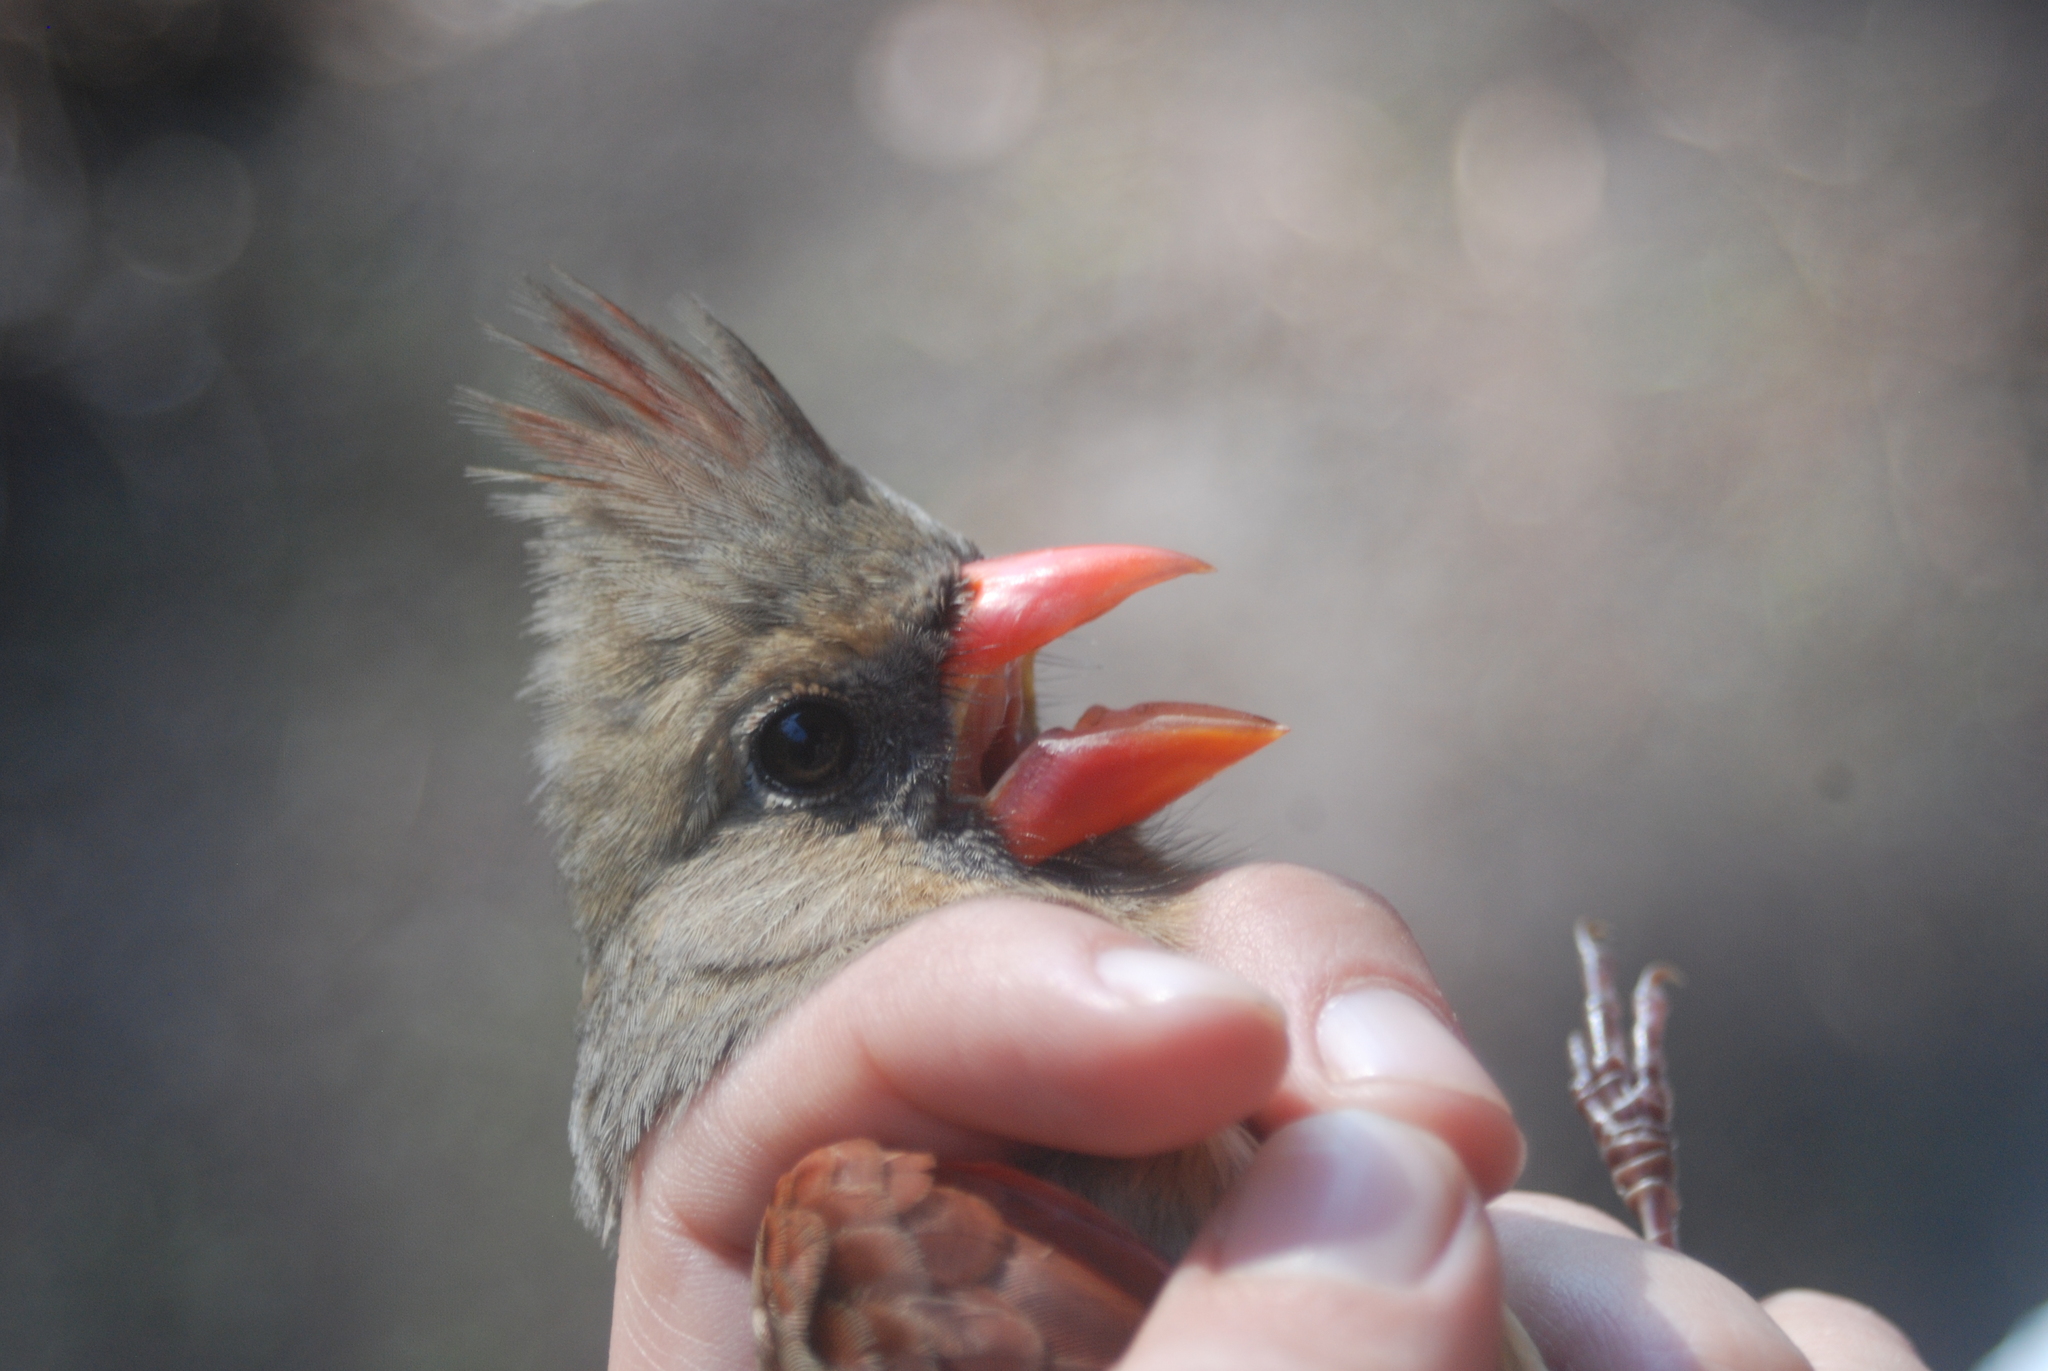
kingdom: Animalia
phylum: Chordata
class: Aves
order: Passeriformes
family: Cardinalidae
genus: Cardinalis
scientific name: Cardinalis cardinalis
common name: Northern cardinal
